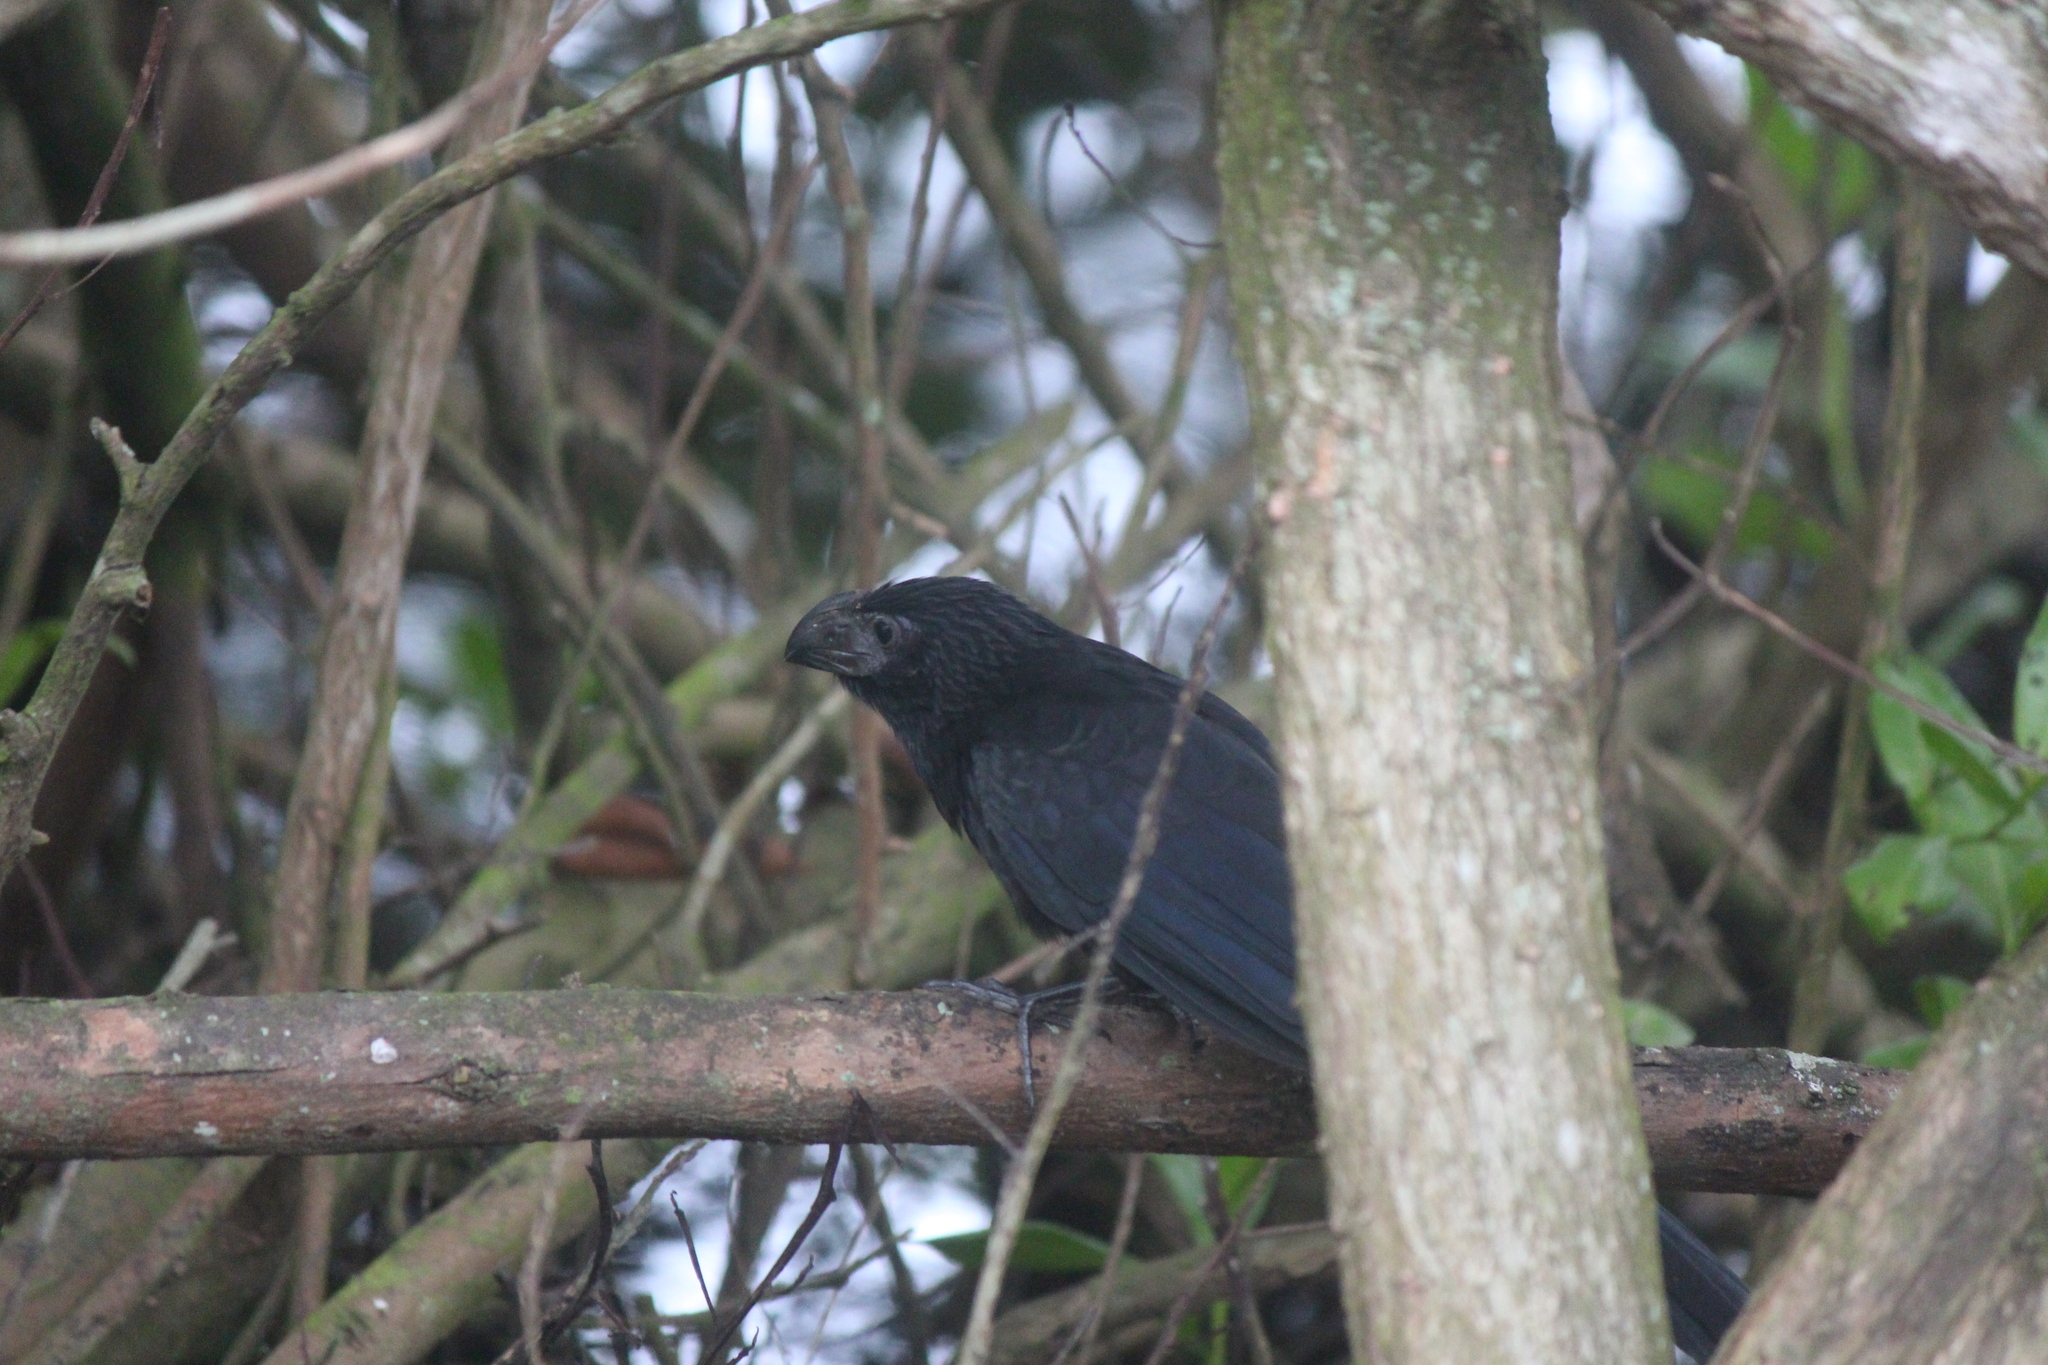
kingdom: Animalia
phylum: Chordata
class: Aves
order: Cuculiformes
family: Cuculidae
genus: Crotophaga
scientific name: Crotophaga sulcirostris
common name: Groove-billed ani
